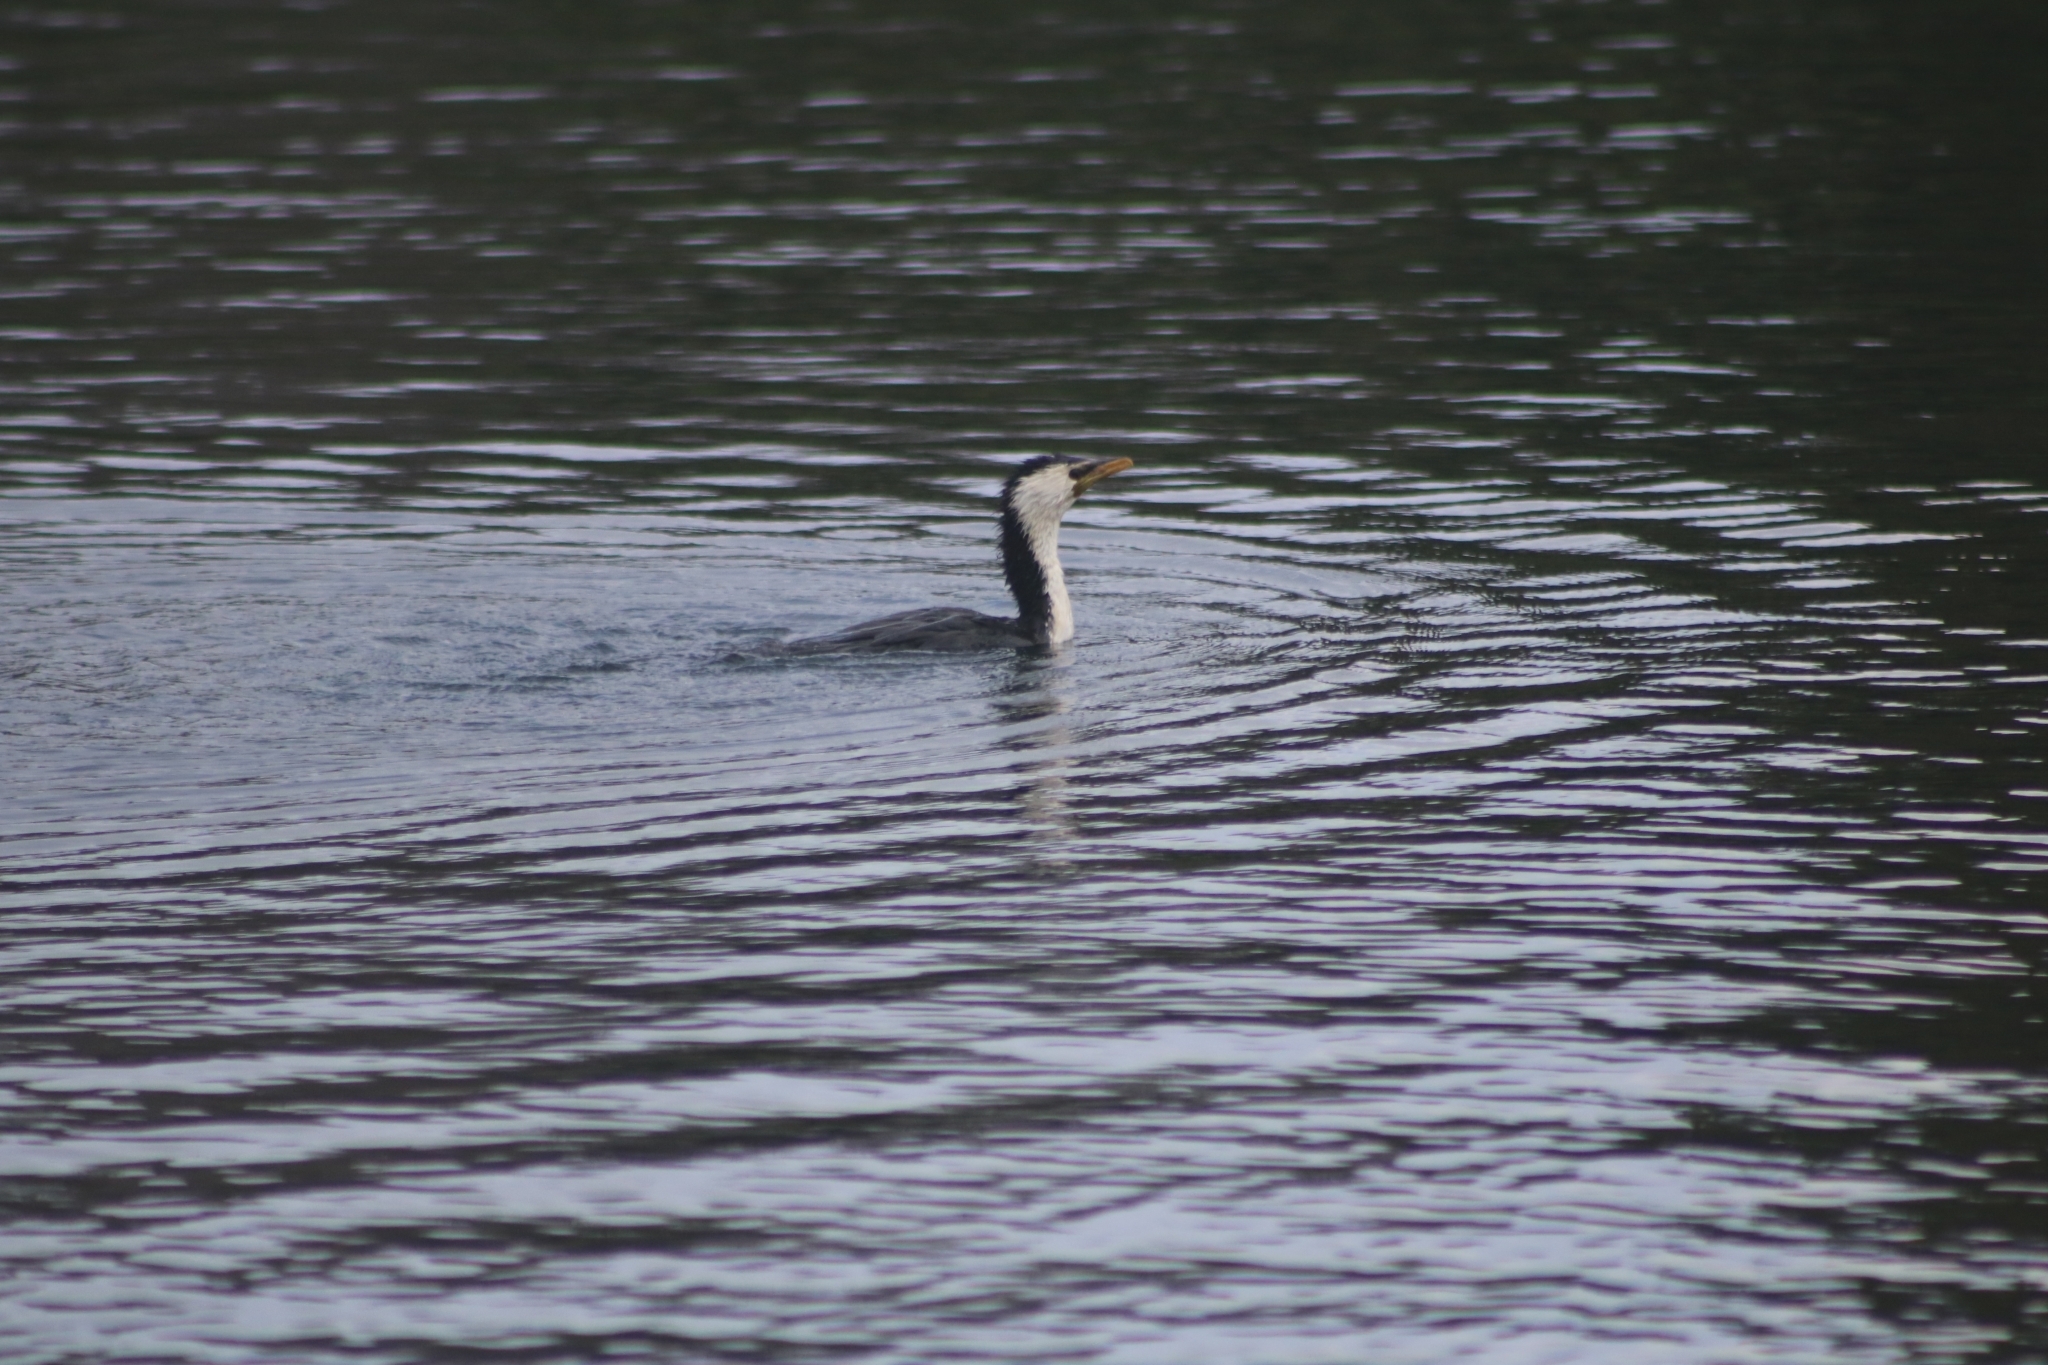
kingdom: Animalia
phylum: Chordata
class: Aves
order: Suliformes
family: Phalacrocoracidae
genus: Microcarbo
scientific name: Microcarbo melanoleucos
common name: Little pied cormorant
